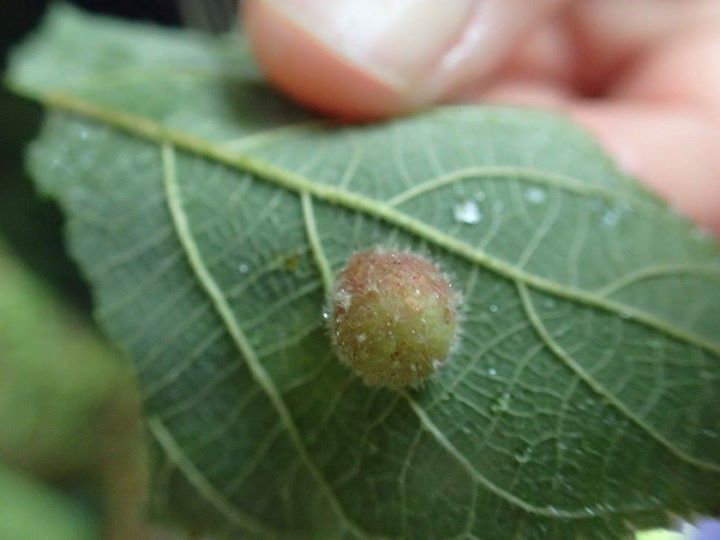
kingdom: Animalia
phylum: Arthropoda
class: Insecta
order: Diptera
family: Cecidomyiidae
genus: Schizomyia
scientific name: Schizomyia broussonetiae
